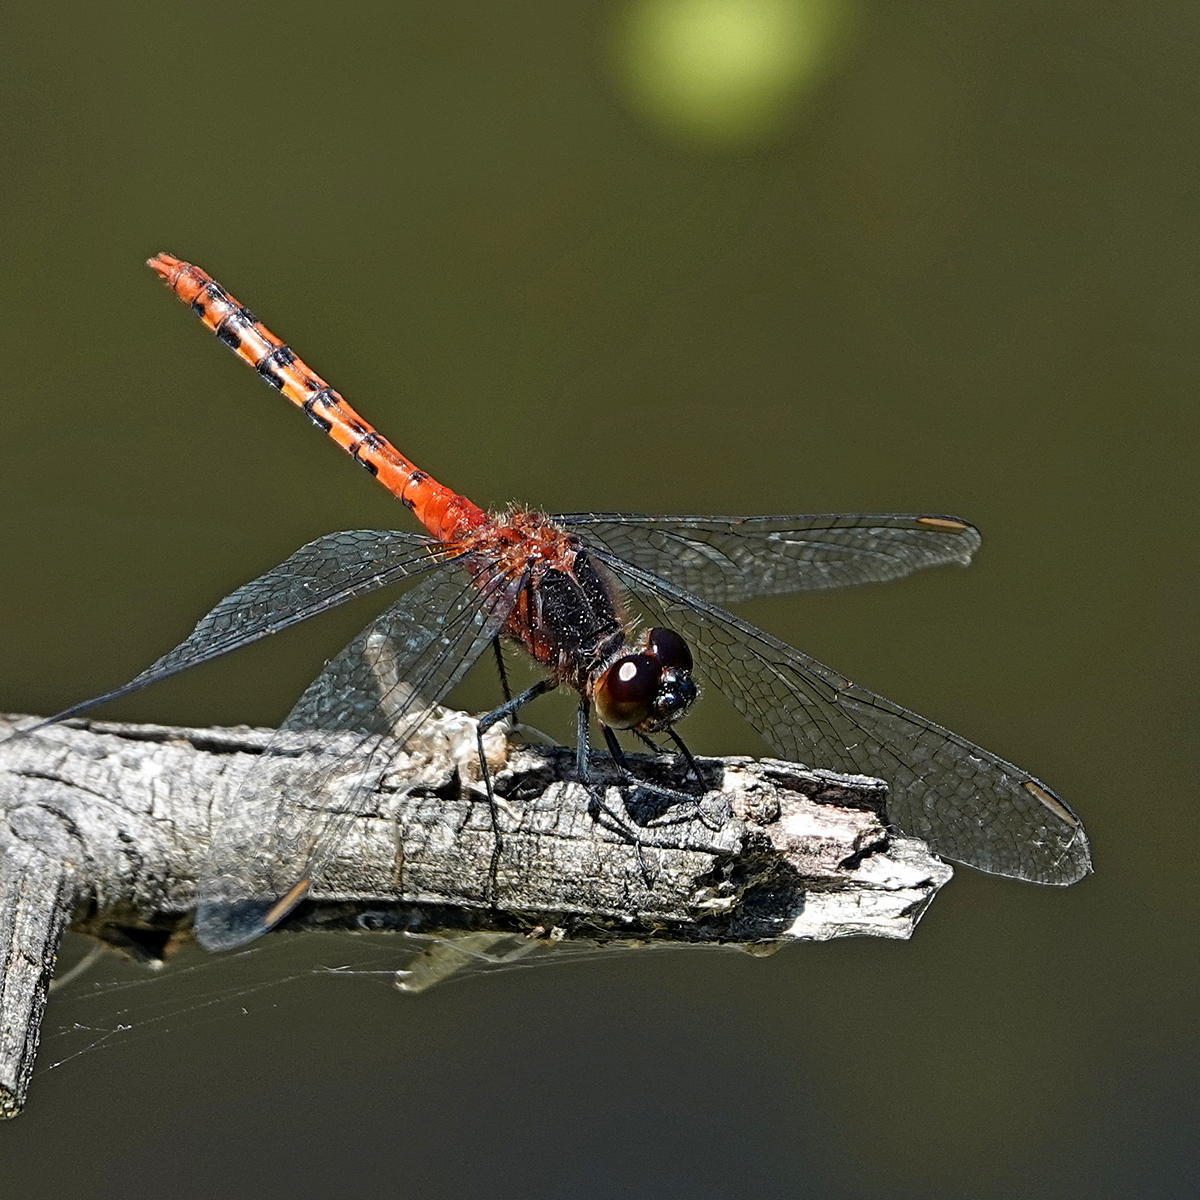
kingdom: Animalia
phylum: Arthropoda
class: Insecta
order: Odonata
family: Libellulidae
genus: Diplacodes
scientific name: Diplacodes melanopsis
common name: Black-faced percher
